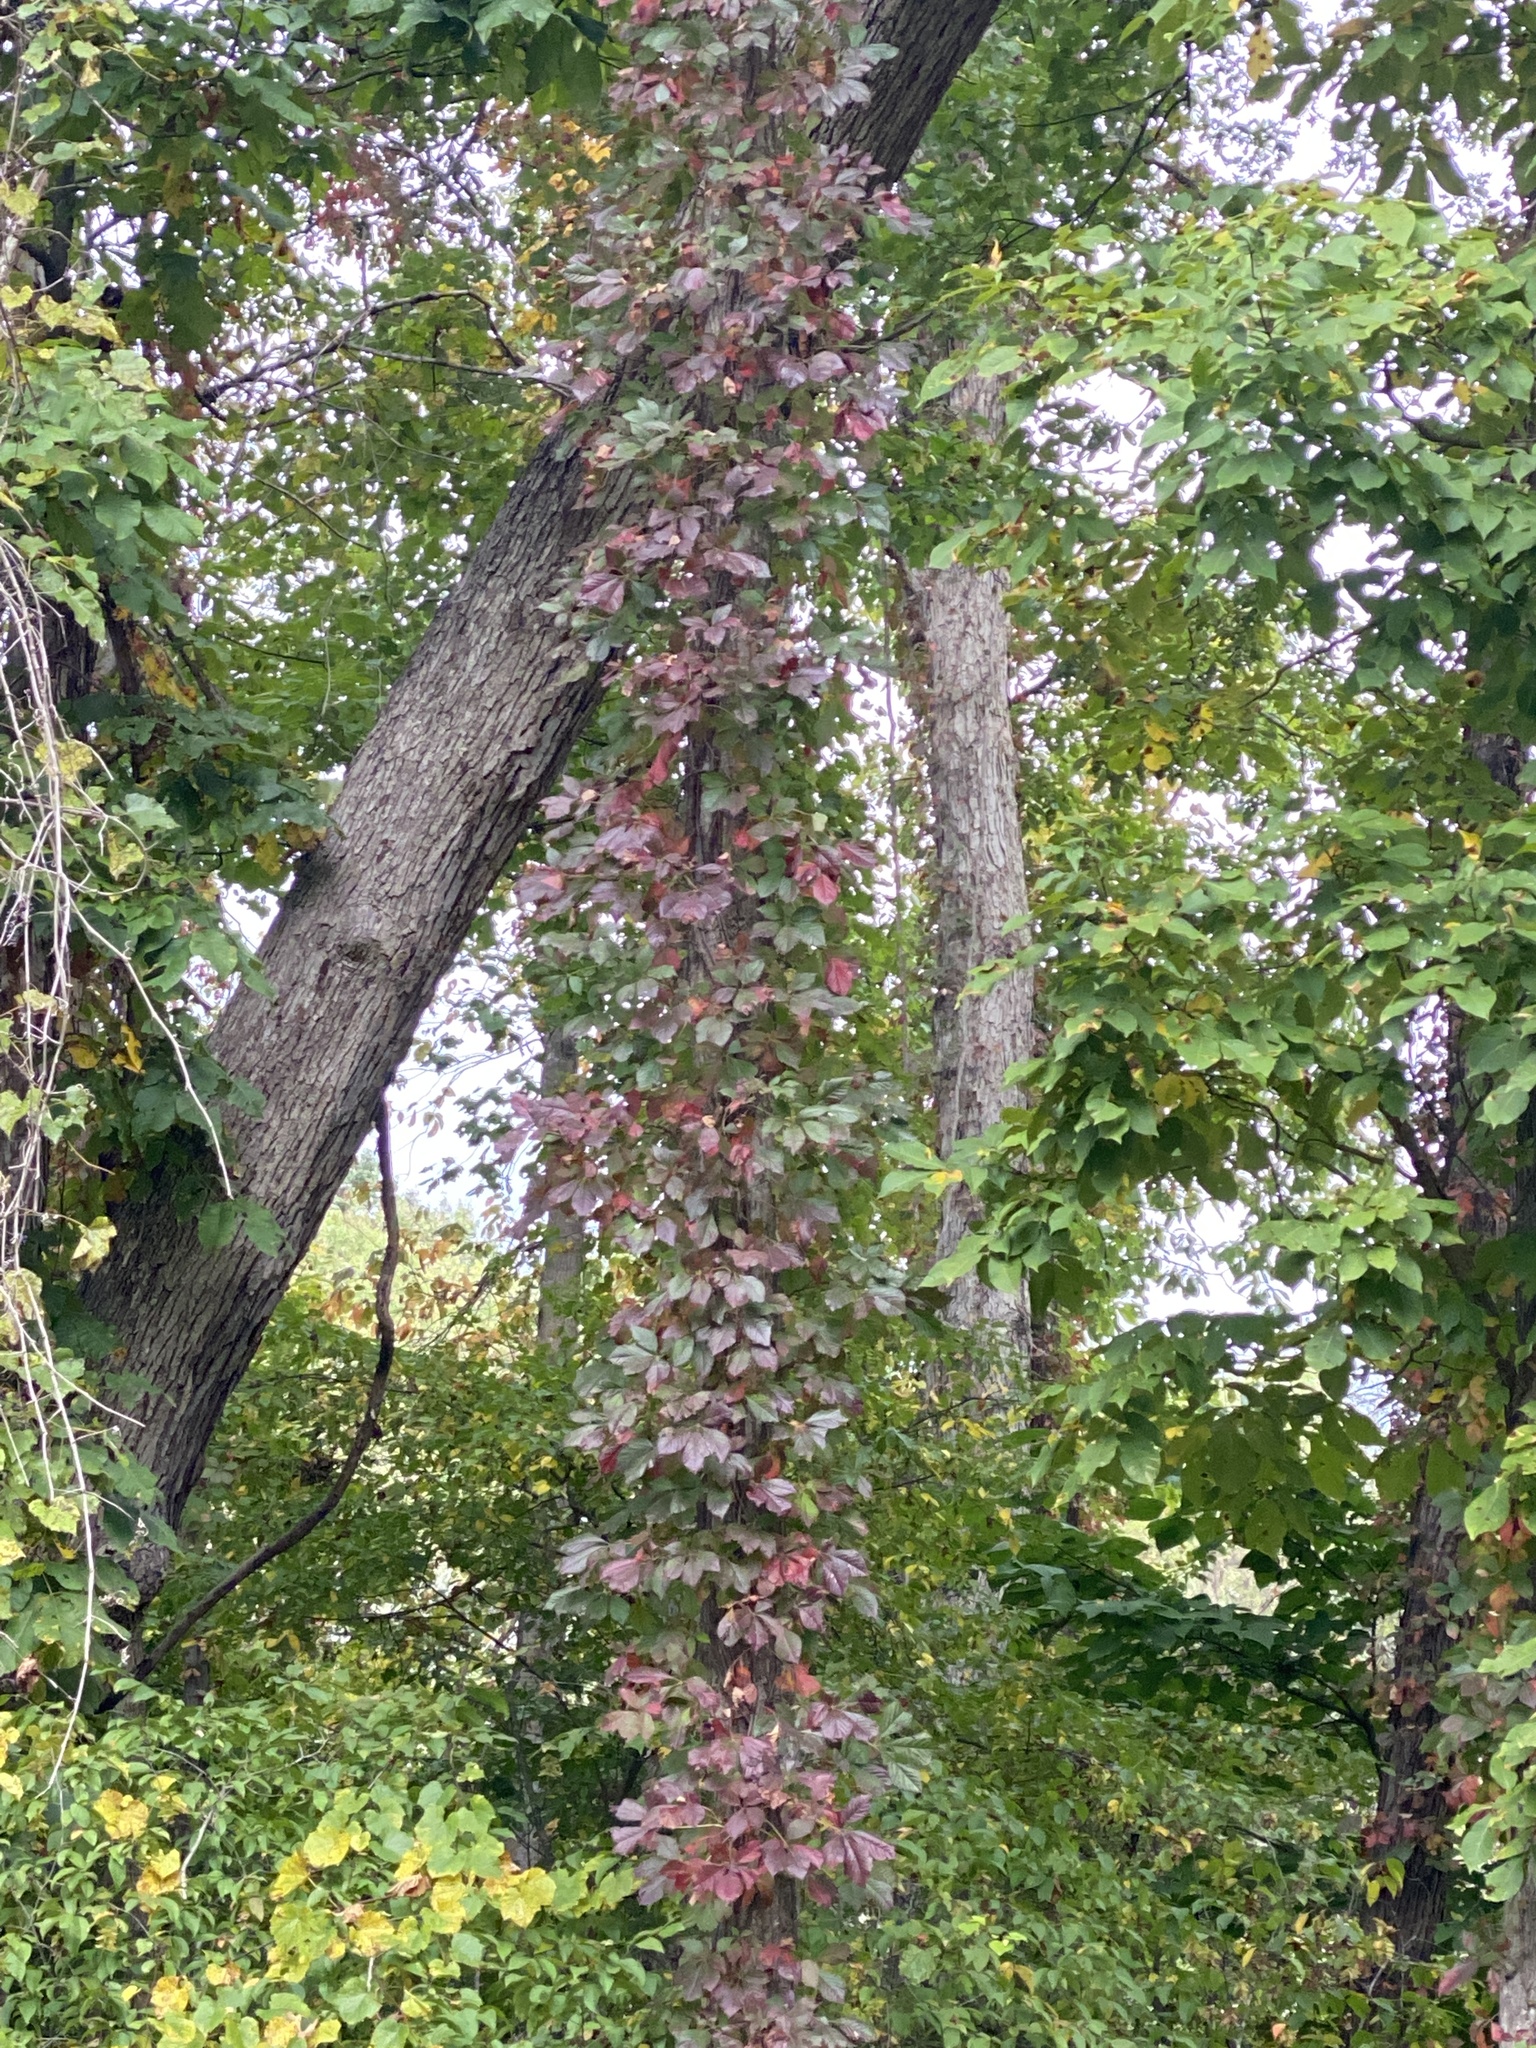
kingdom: Plantae
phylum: Tracheophyta
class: Magnoliopsida
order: Vitales
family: Vitaceae
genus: Parthenocissus
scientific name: Parthenocissus quinquefolia
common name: Virginia-creeper
